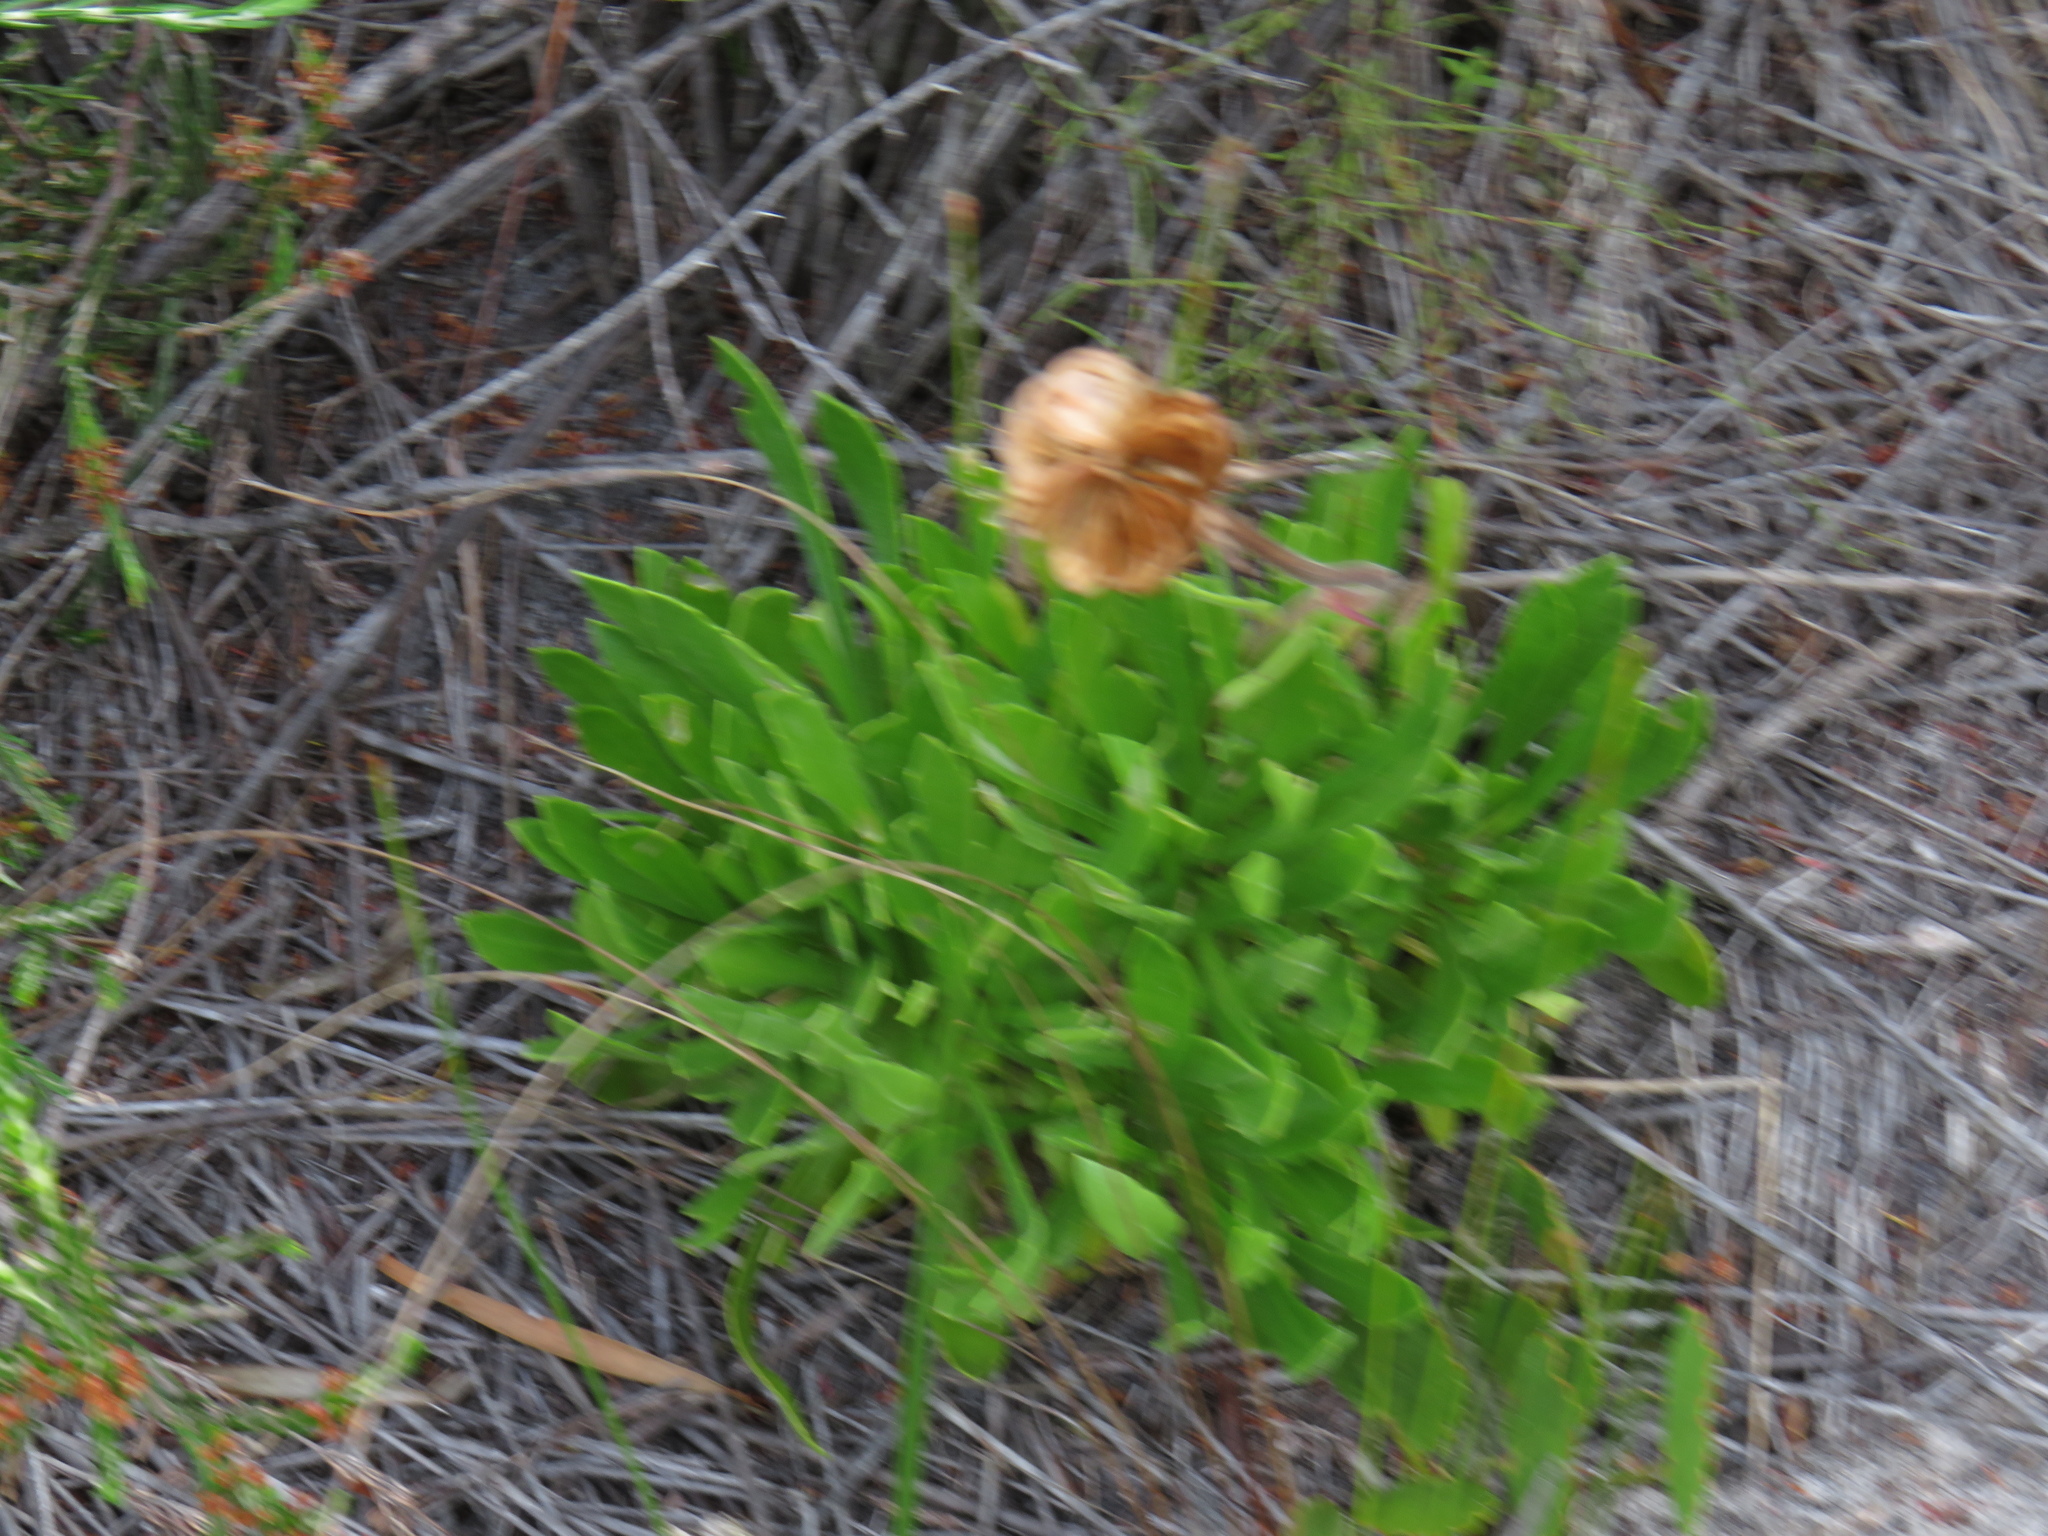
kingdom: Plantae
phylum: Tracheophyta
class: Magnoliopsida
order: Asterales
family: Asteraceae
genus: Dimorphotheca
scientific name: Dimorphotheca nudicaulis
